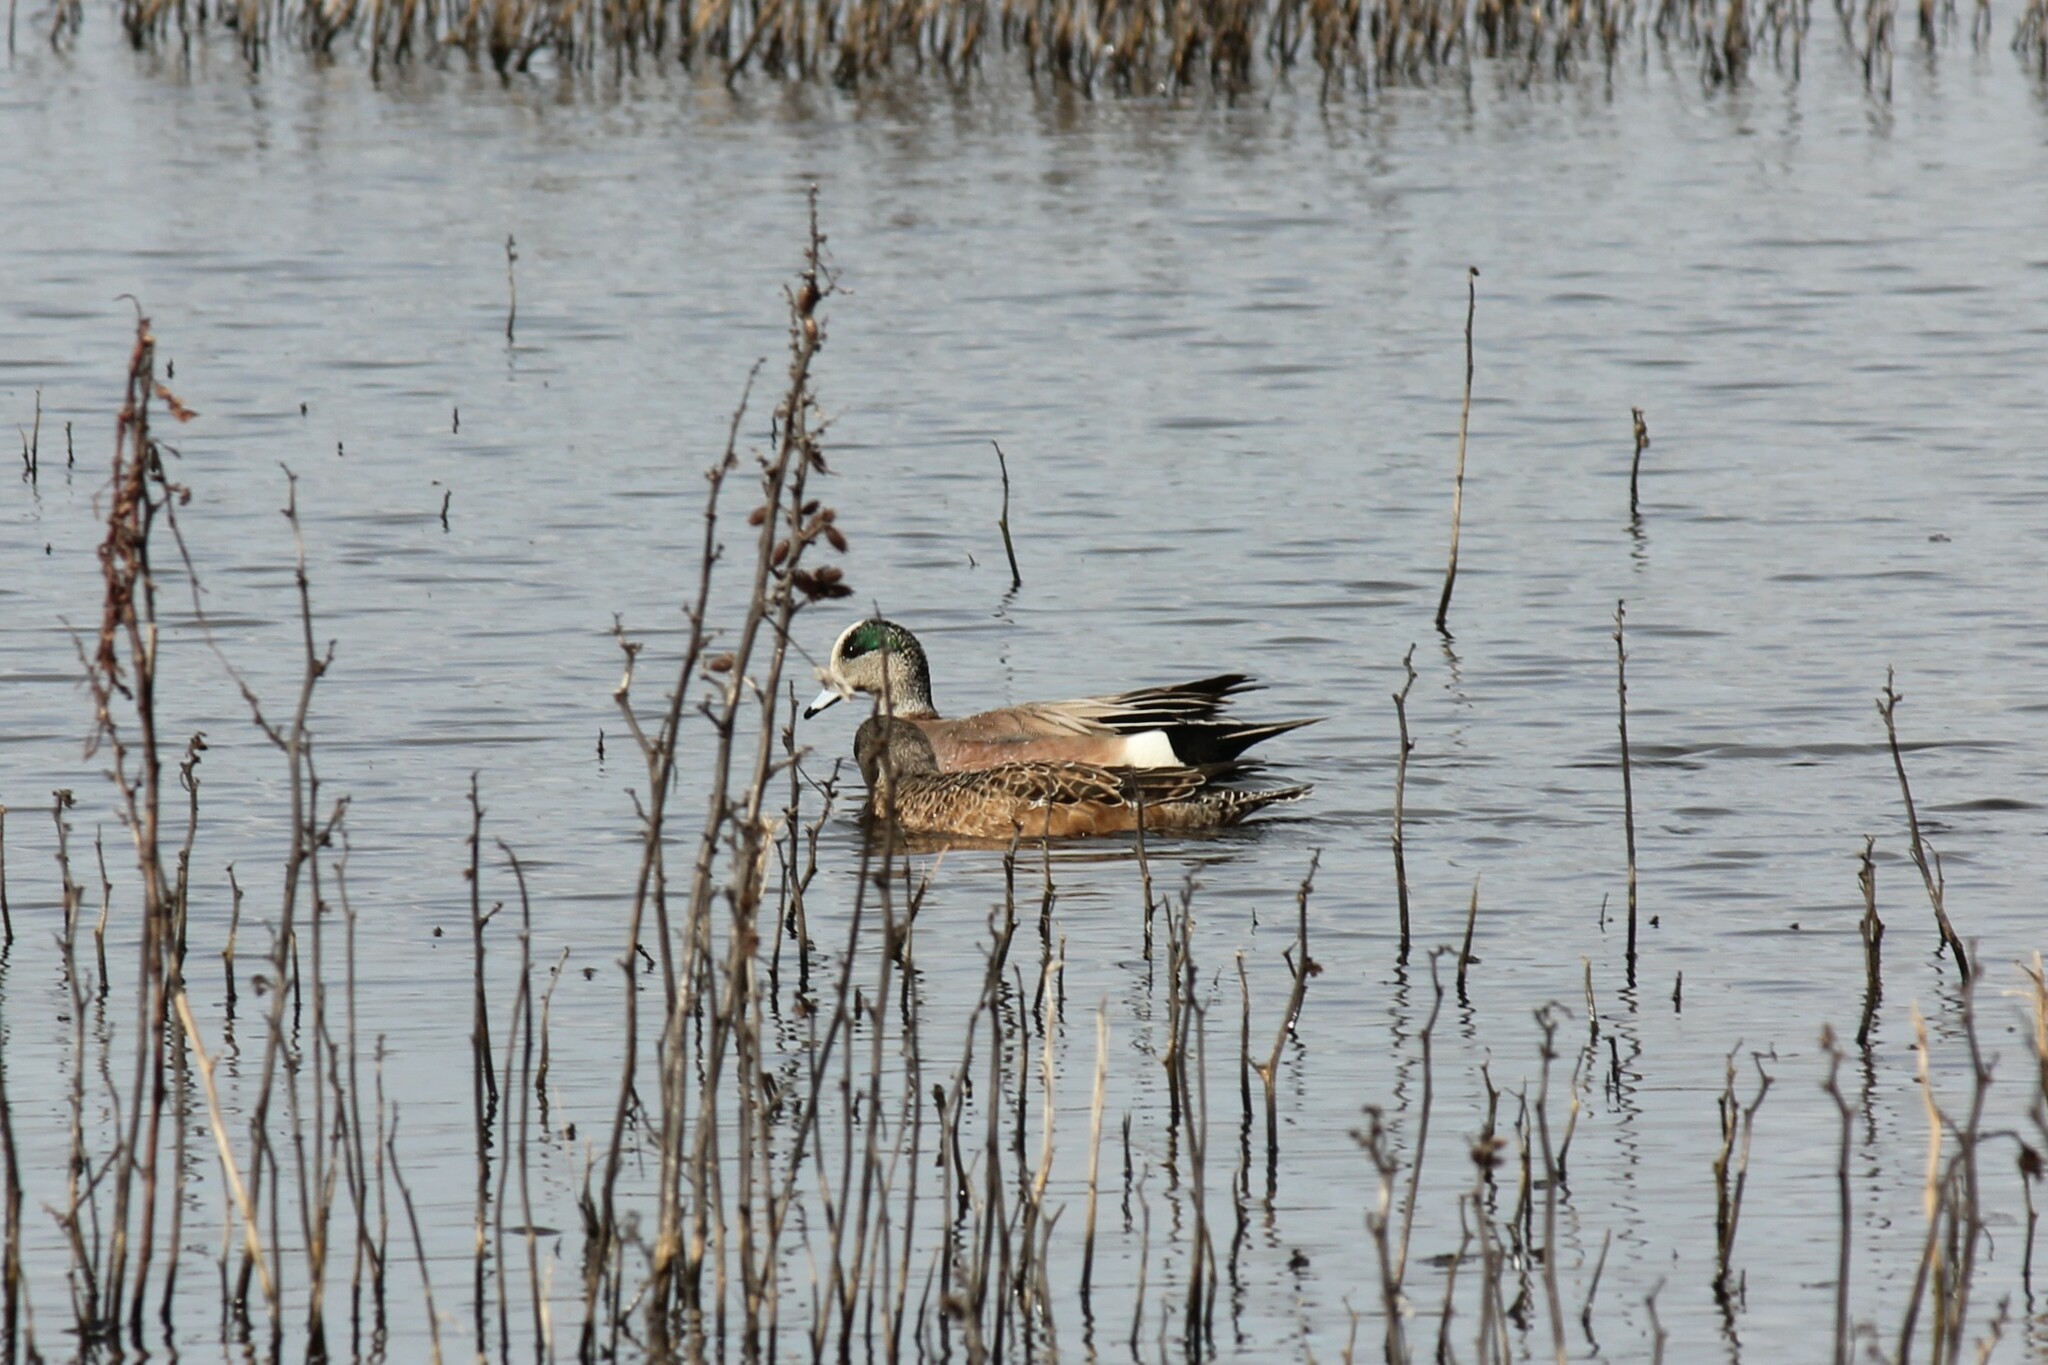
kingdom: Animalia
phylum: Chordata
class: Aves
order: Anseriformes
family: Anatidae
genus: Mareca
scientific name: Mareca americana
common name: American wigeon
